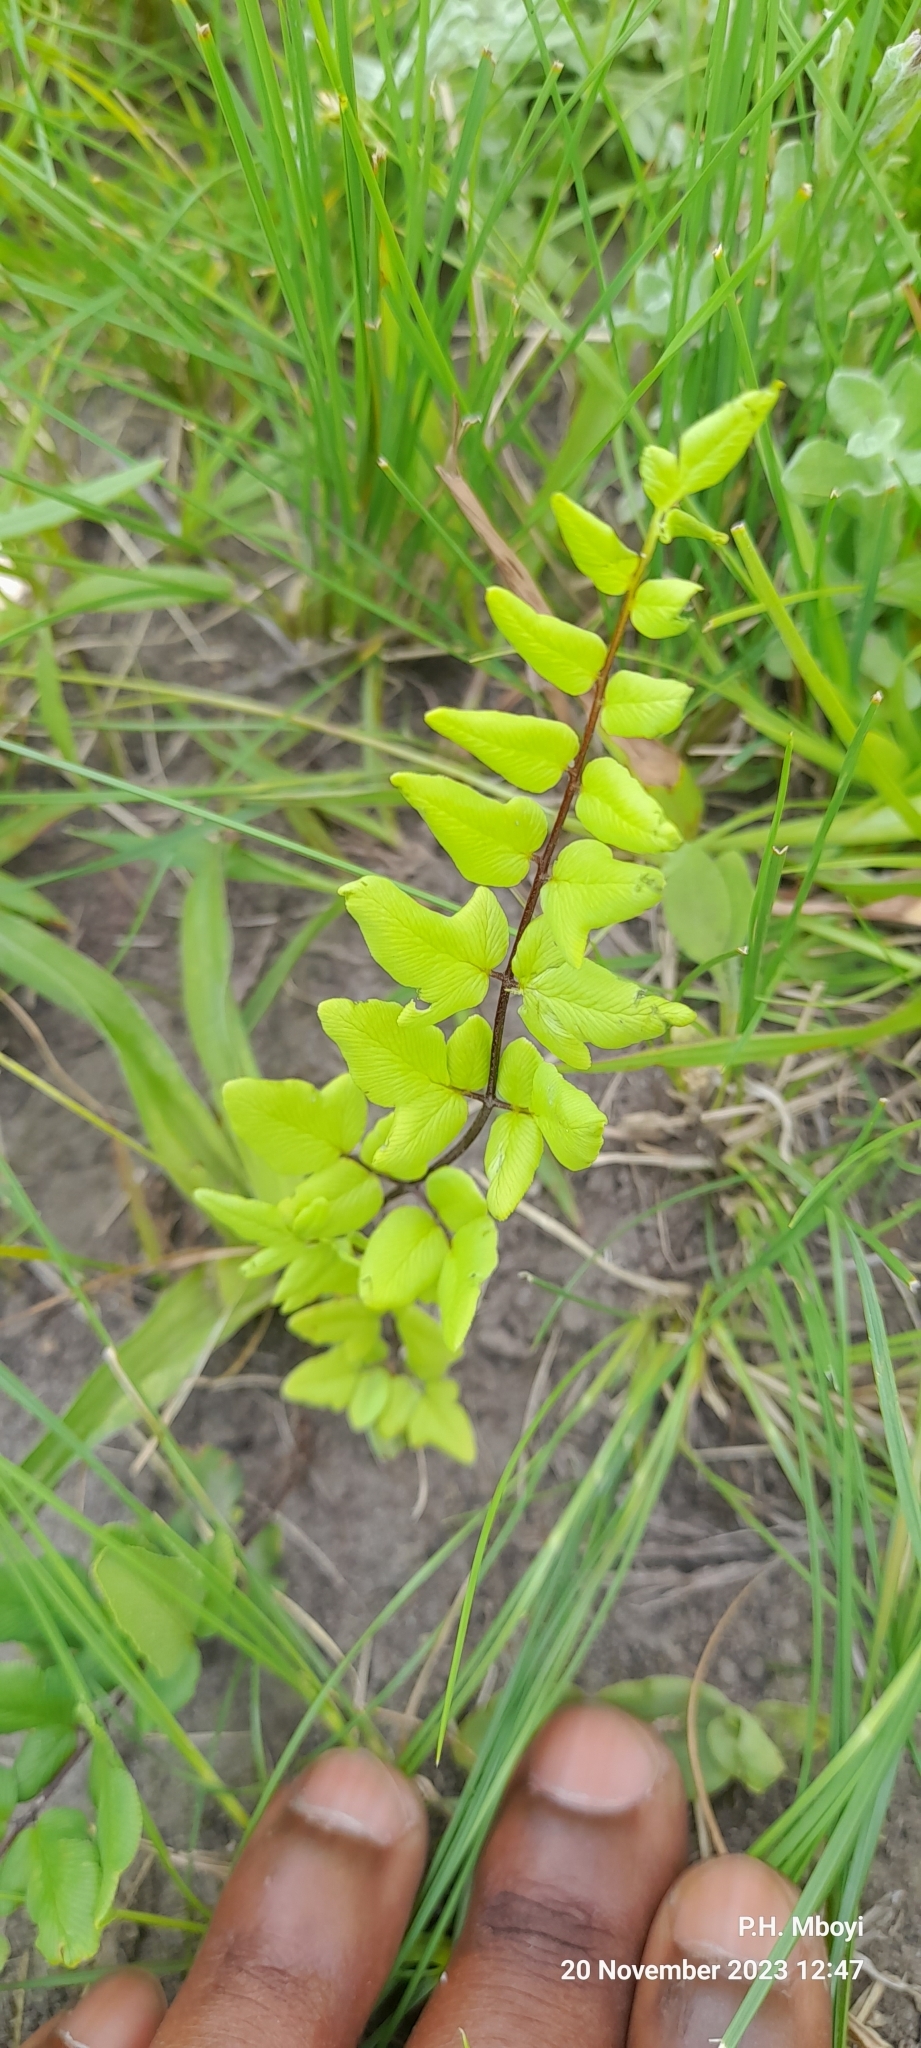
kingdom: Plantae
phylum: Tracheophyta
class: Polypodiopsida
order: Polypodiales
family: Pteridaceae
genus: Cheilanthes
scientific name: Cheilanthes viridis
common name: Green cliffbrake
